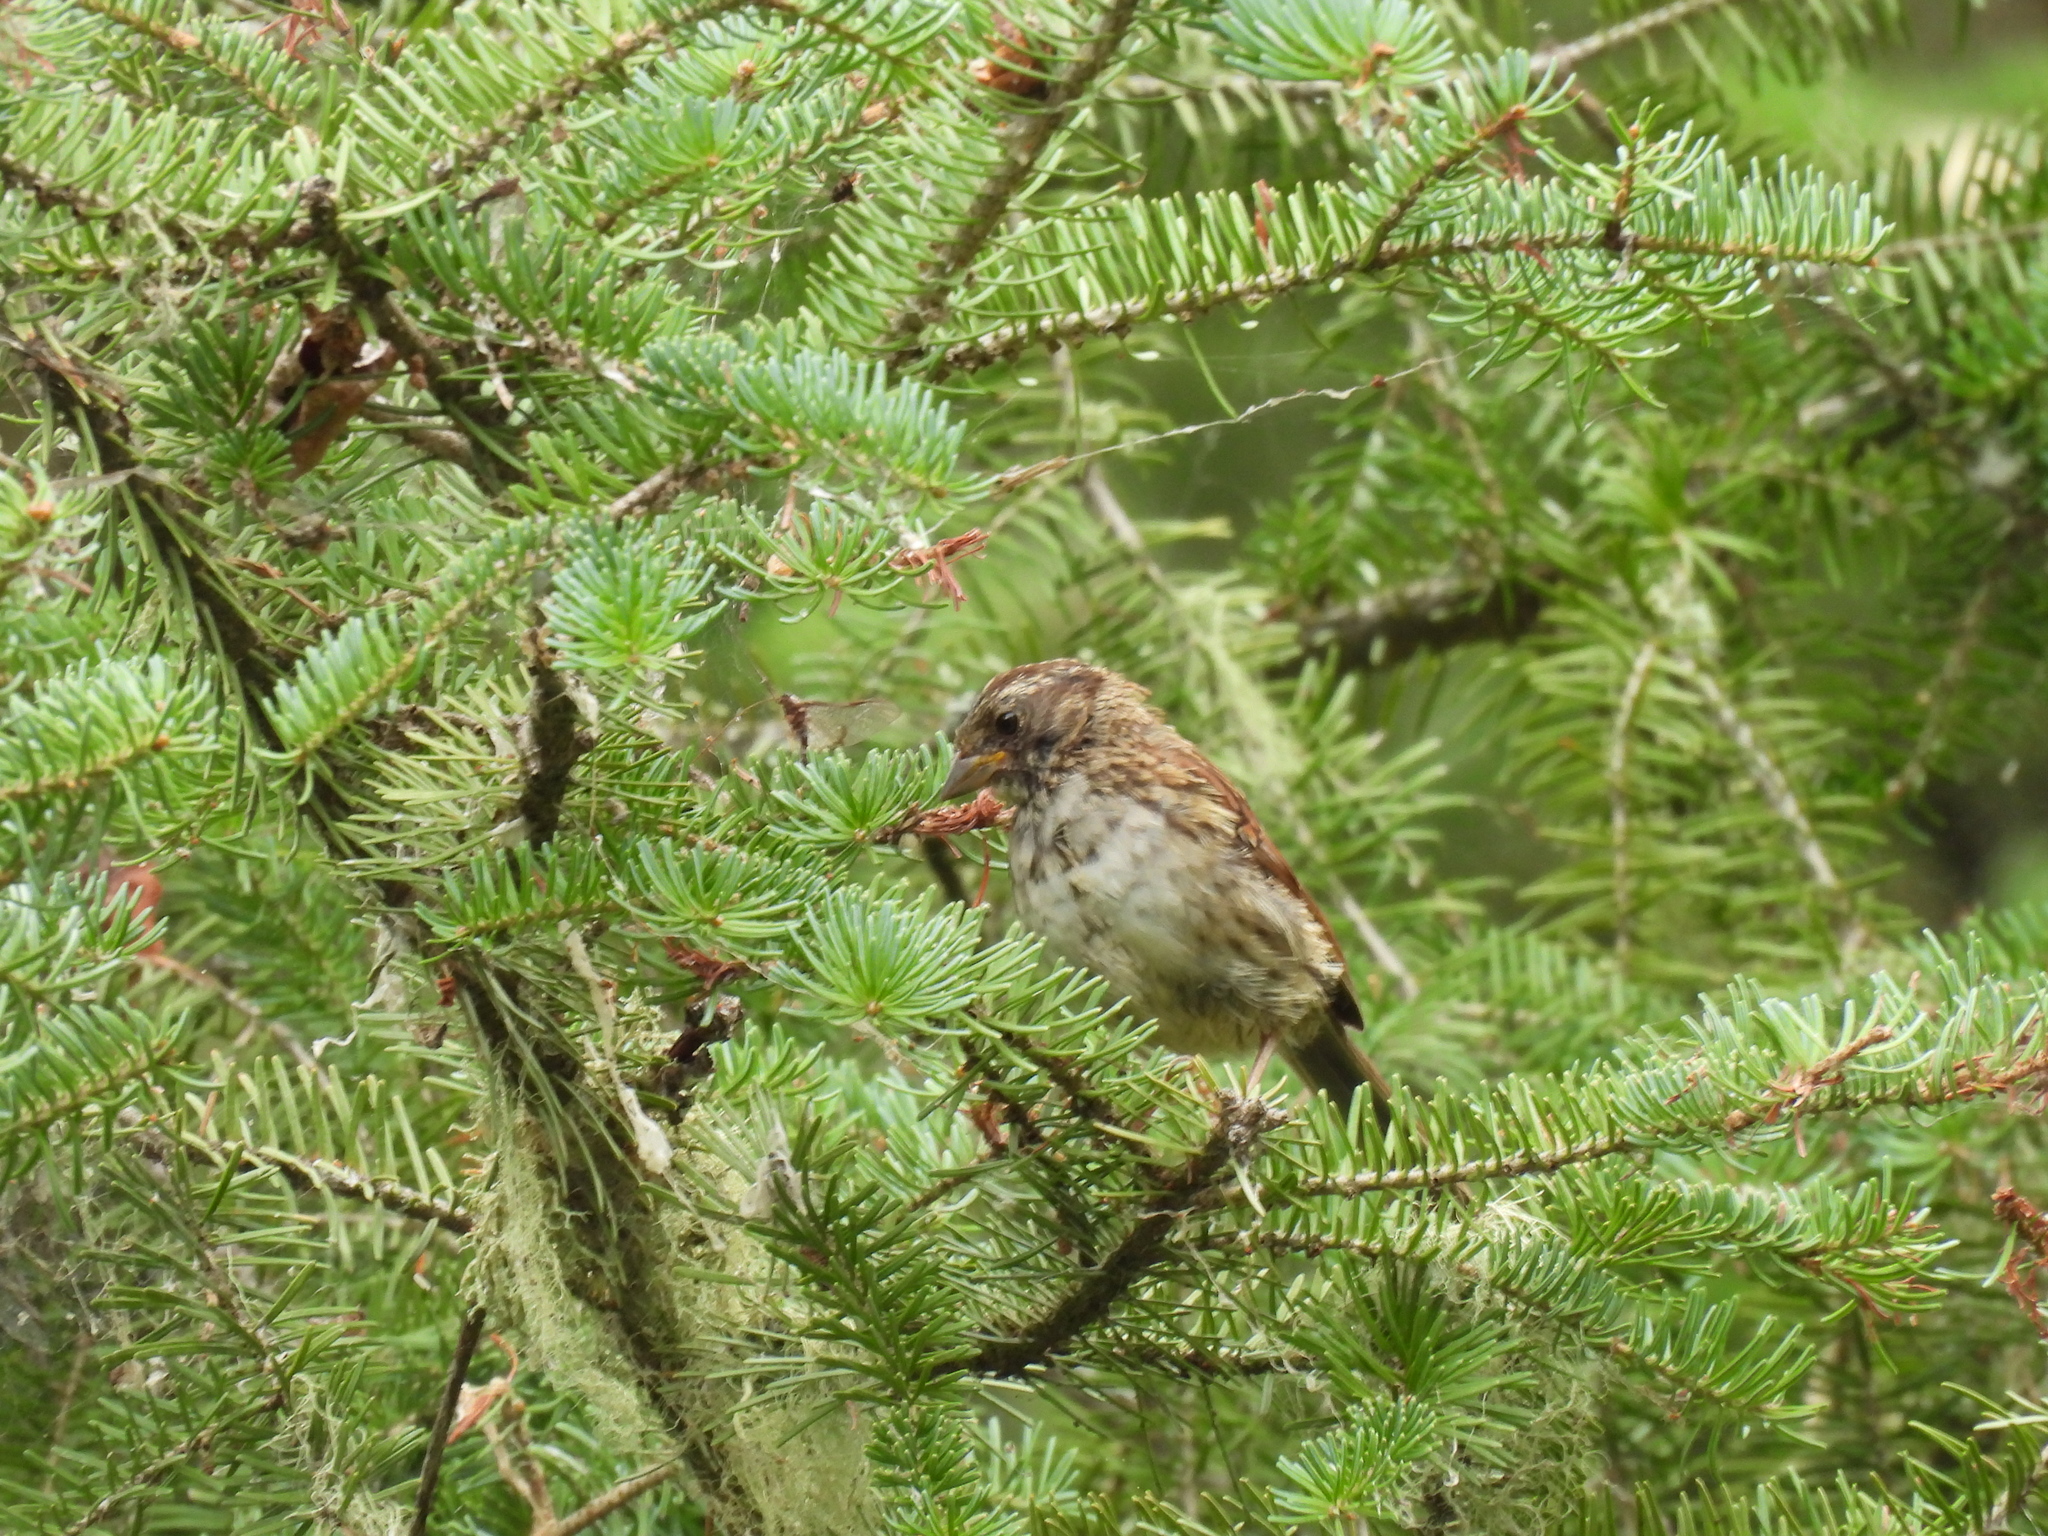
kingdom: Animalia
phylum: Chordata
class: Aves
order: Passeriformes
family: Passerellidae
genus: Zonotrichia
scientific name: Zonotrichia albicollis
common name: White-throated sparrow
